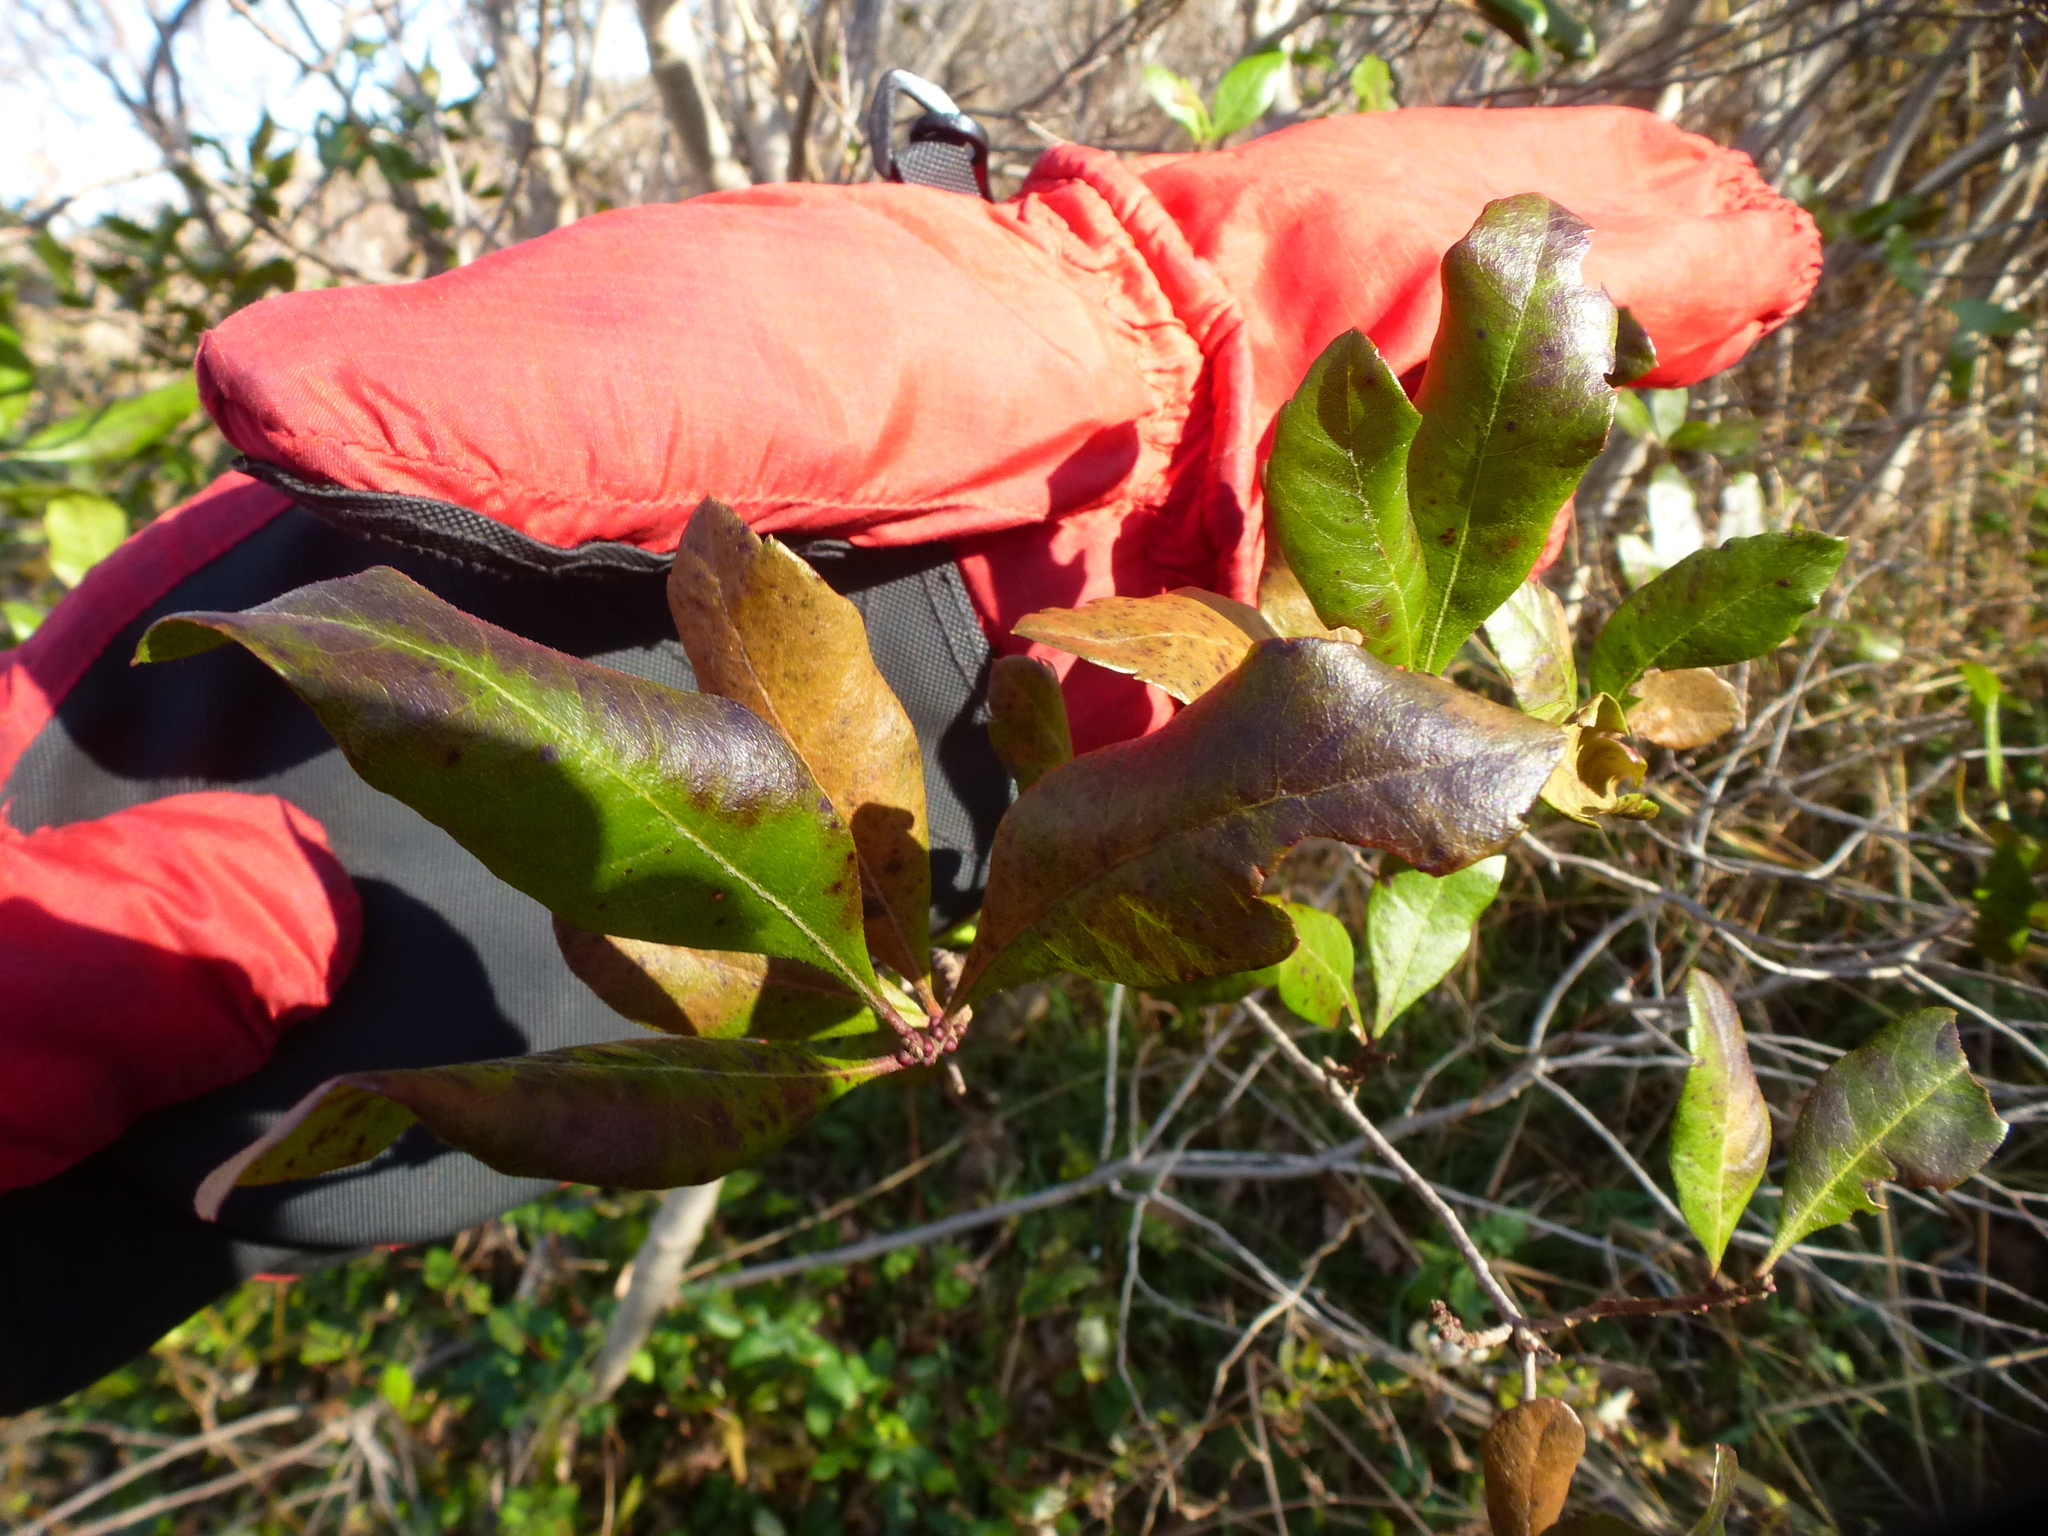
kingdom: Plantae
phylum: Tracheophyta
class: Magnoliopsida
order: Fagales
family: Myricaceae
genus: Morella
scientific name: Morella pensylvanica
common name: Northern bayberry
